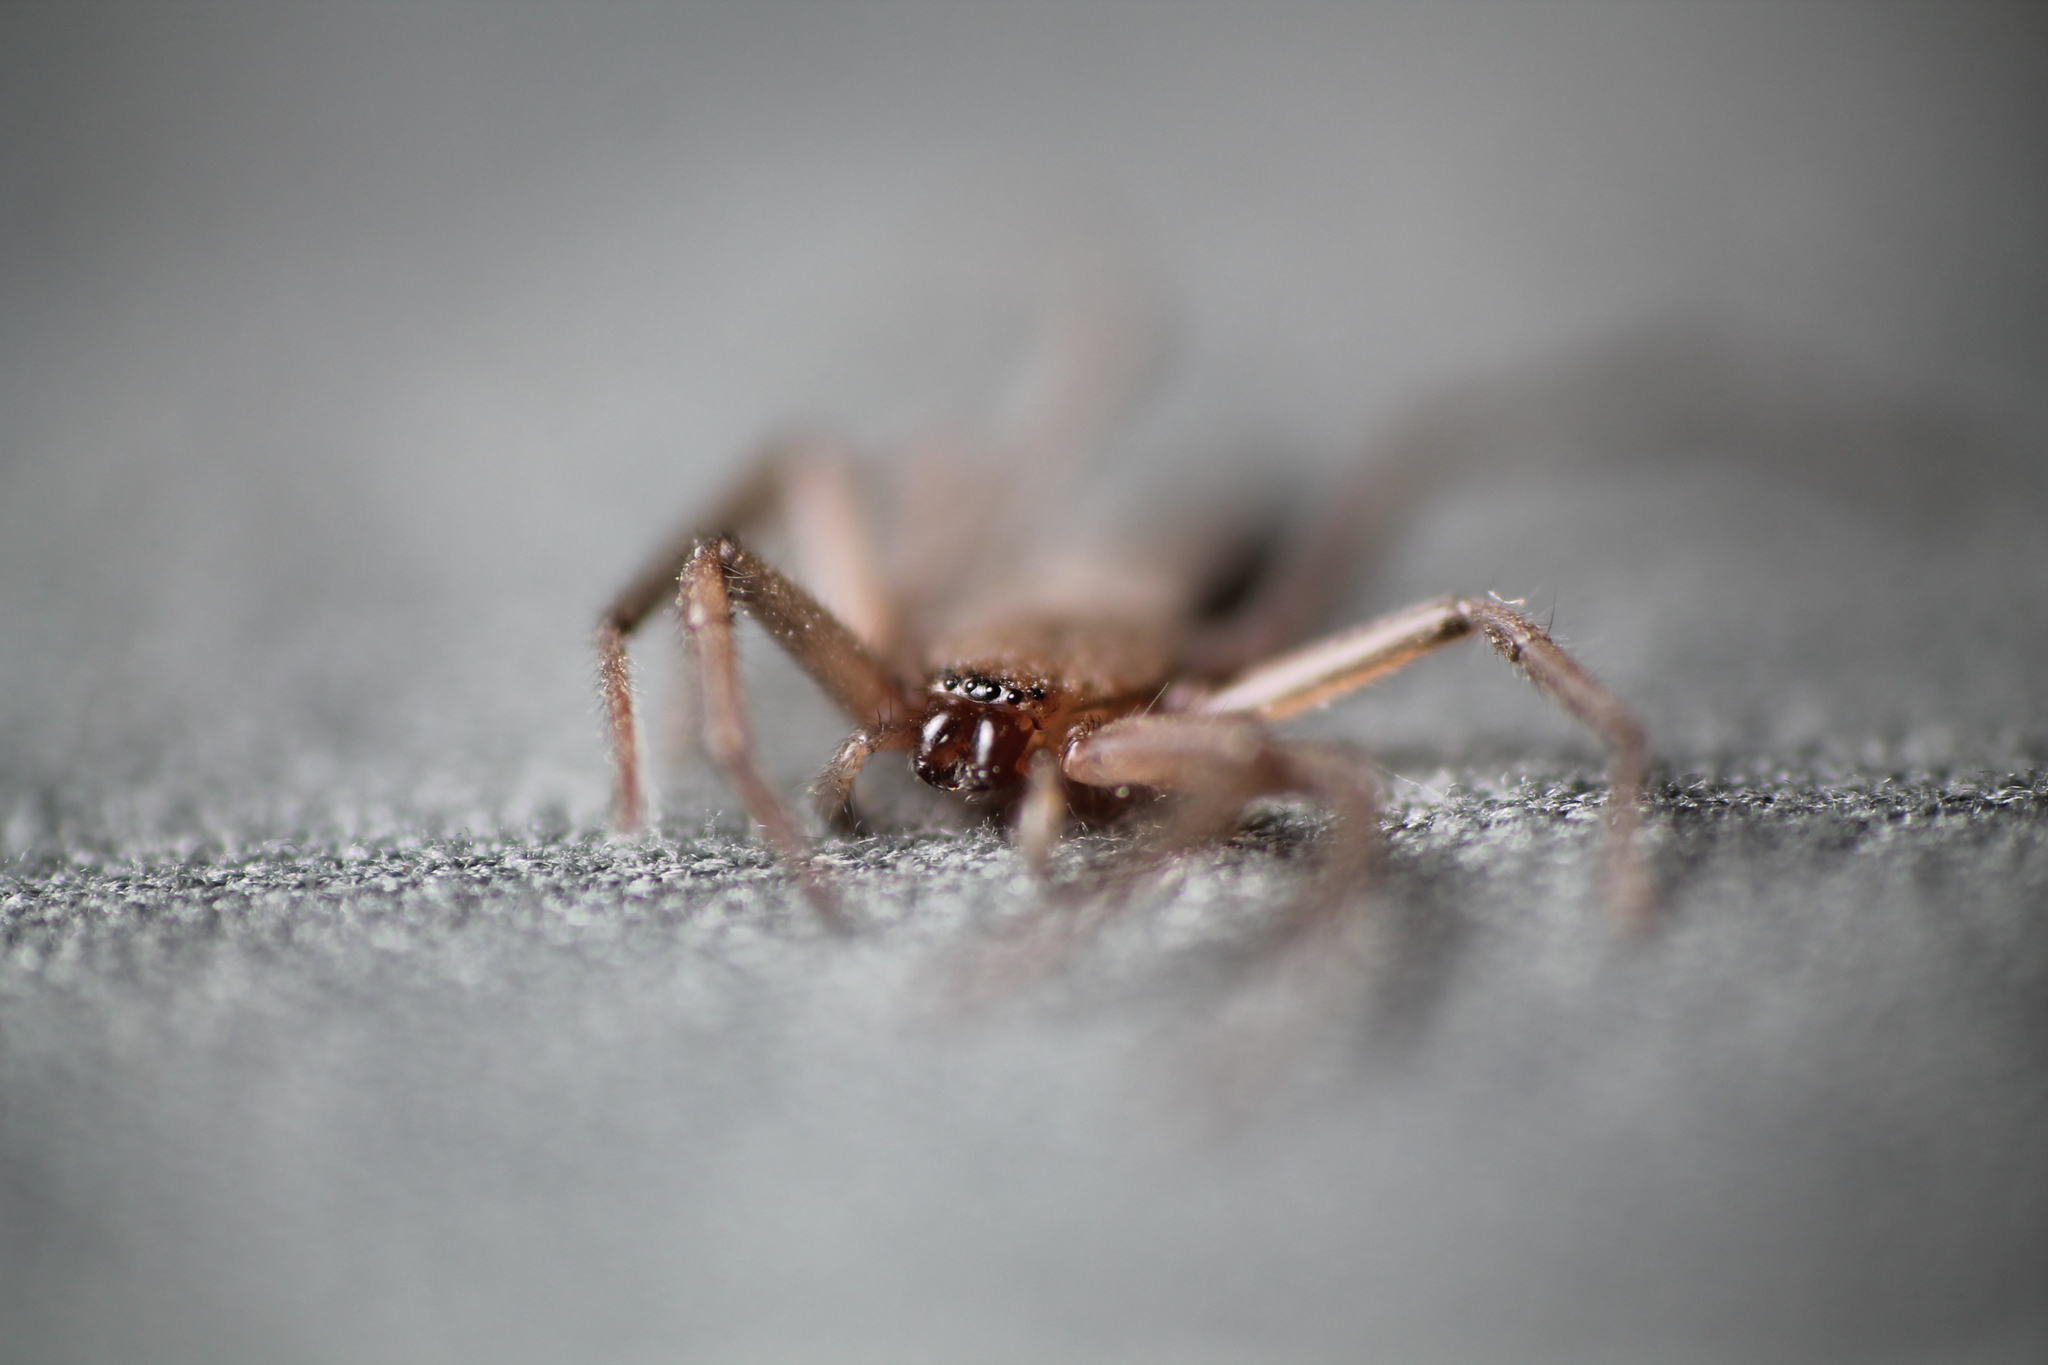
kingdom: Animalia
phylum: Arthropoda
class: Arachnida
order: Araneae
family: Trochanteriidae
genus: Hemicloea
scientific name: Hemicloea rogenhoferi
